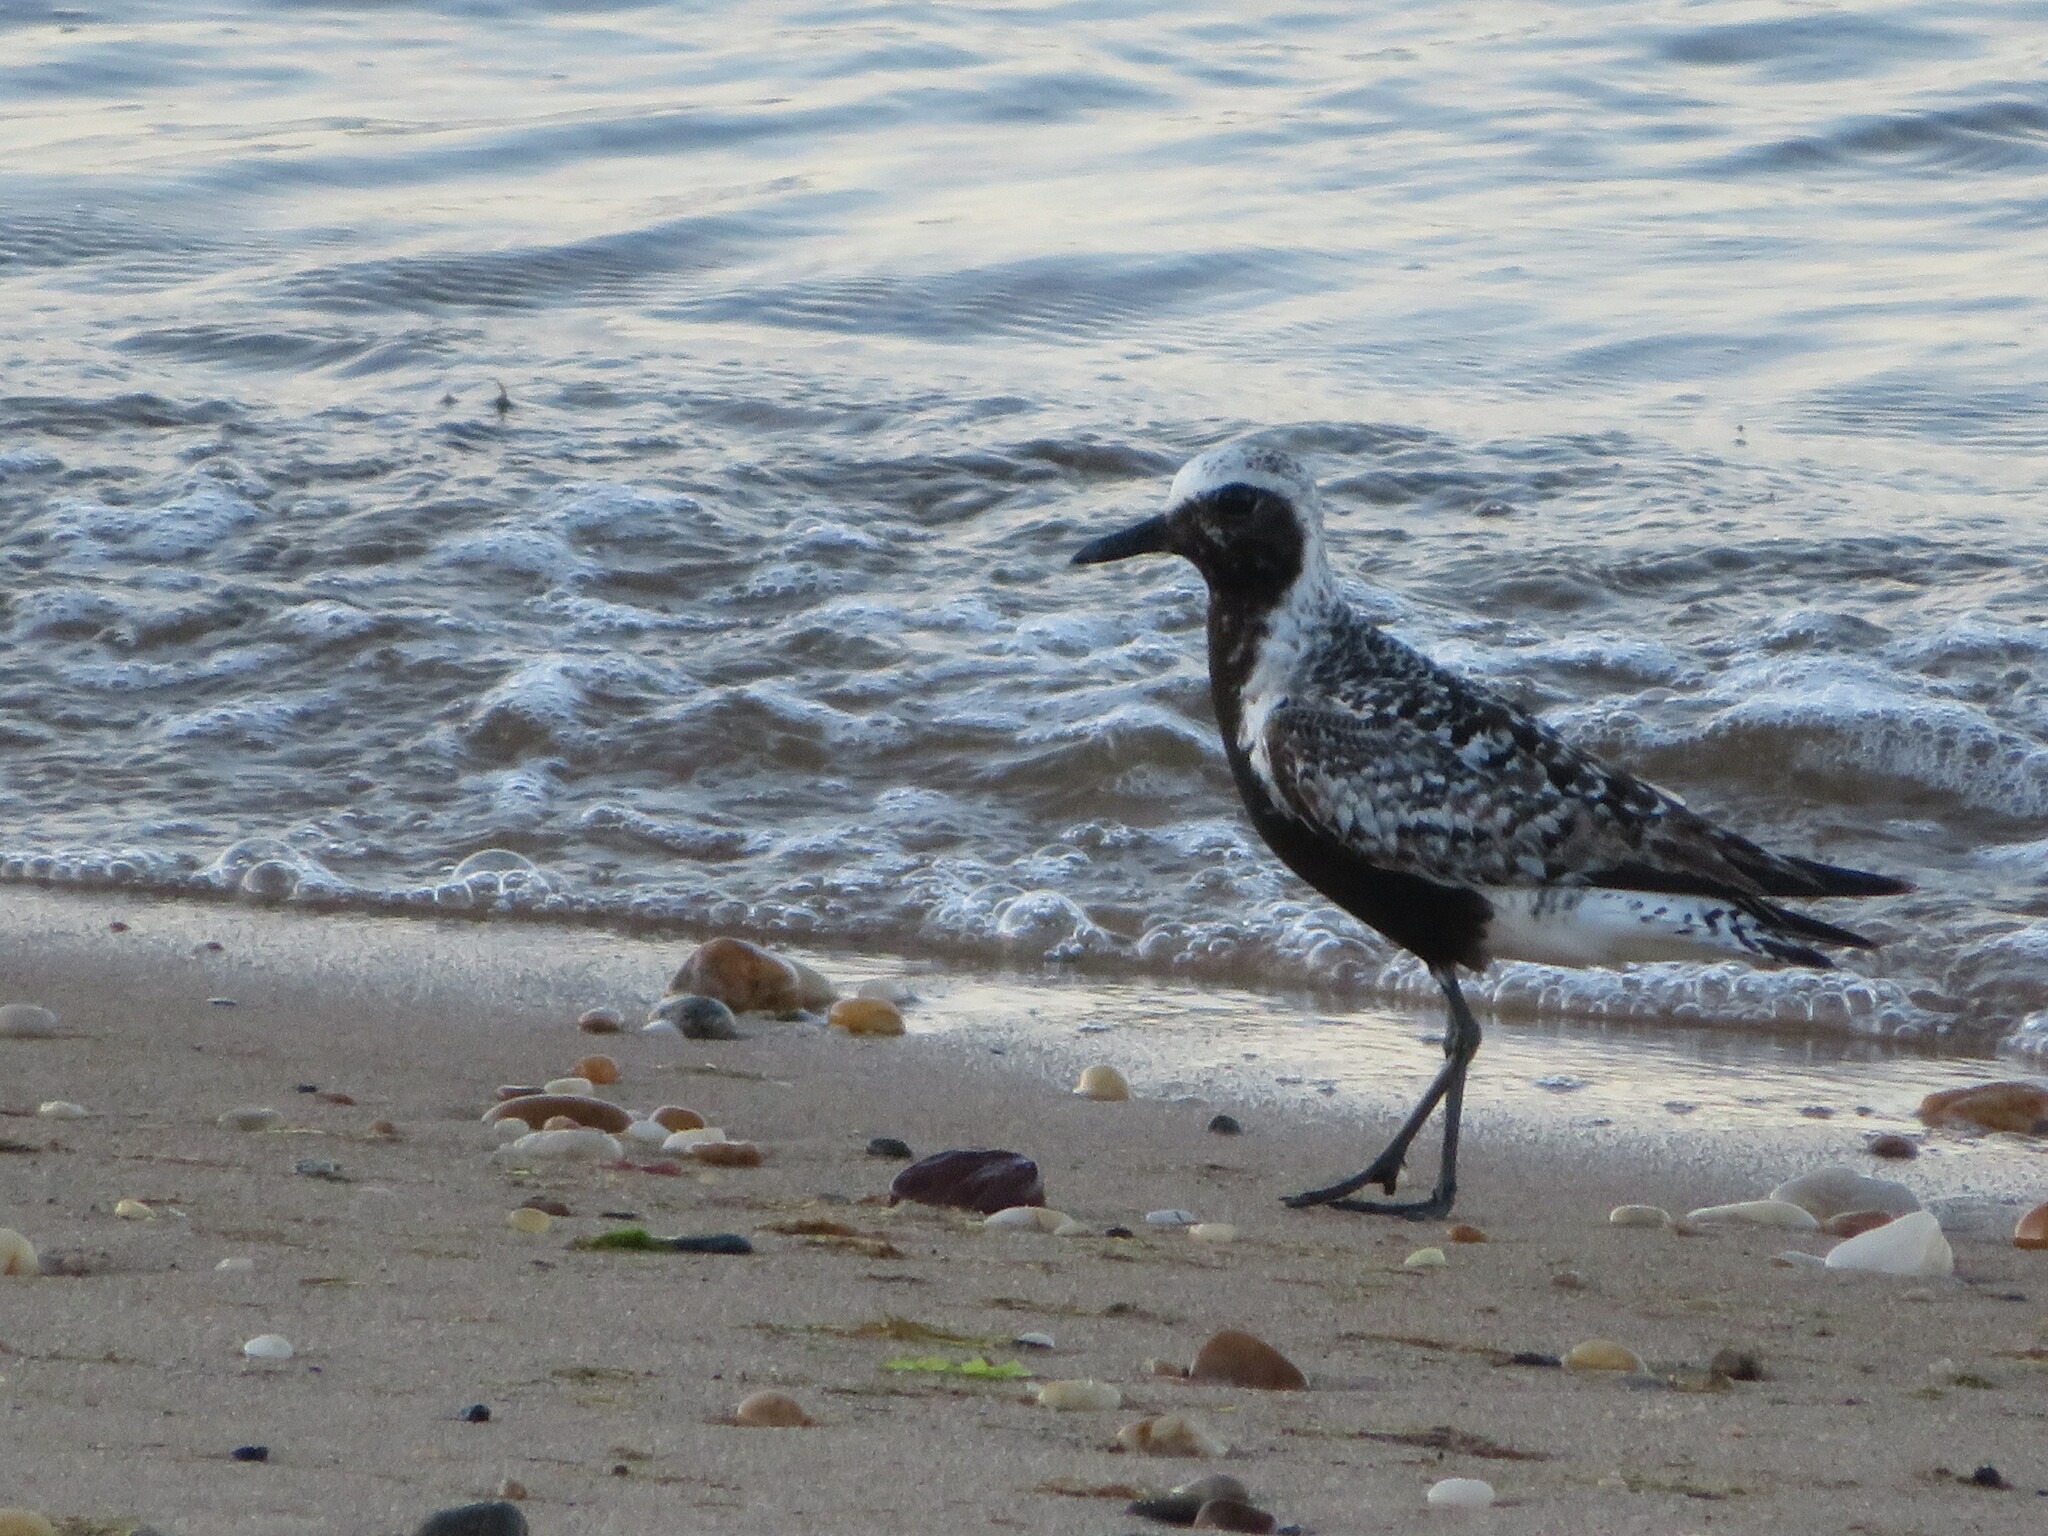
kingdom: Animalia
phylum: Chordata
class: Aves
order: Charadriiformes
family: Charadriidae
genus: Pluvialis
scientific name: Pluvialis squatarola
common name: Grey plover
